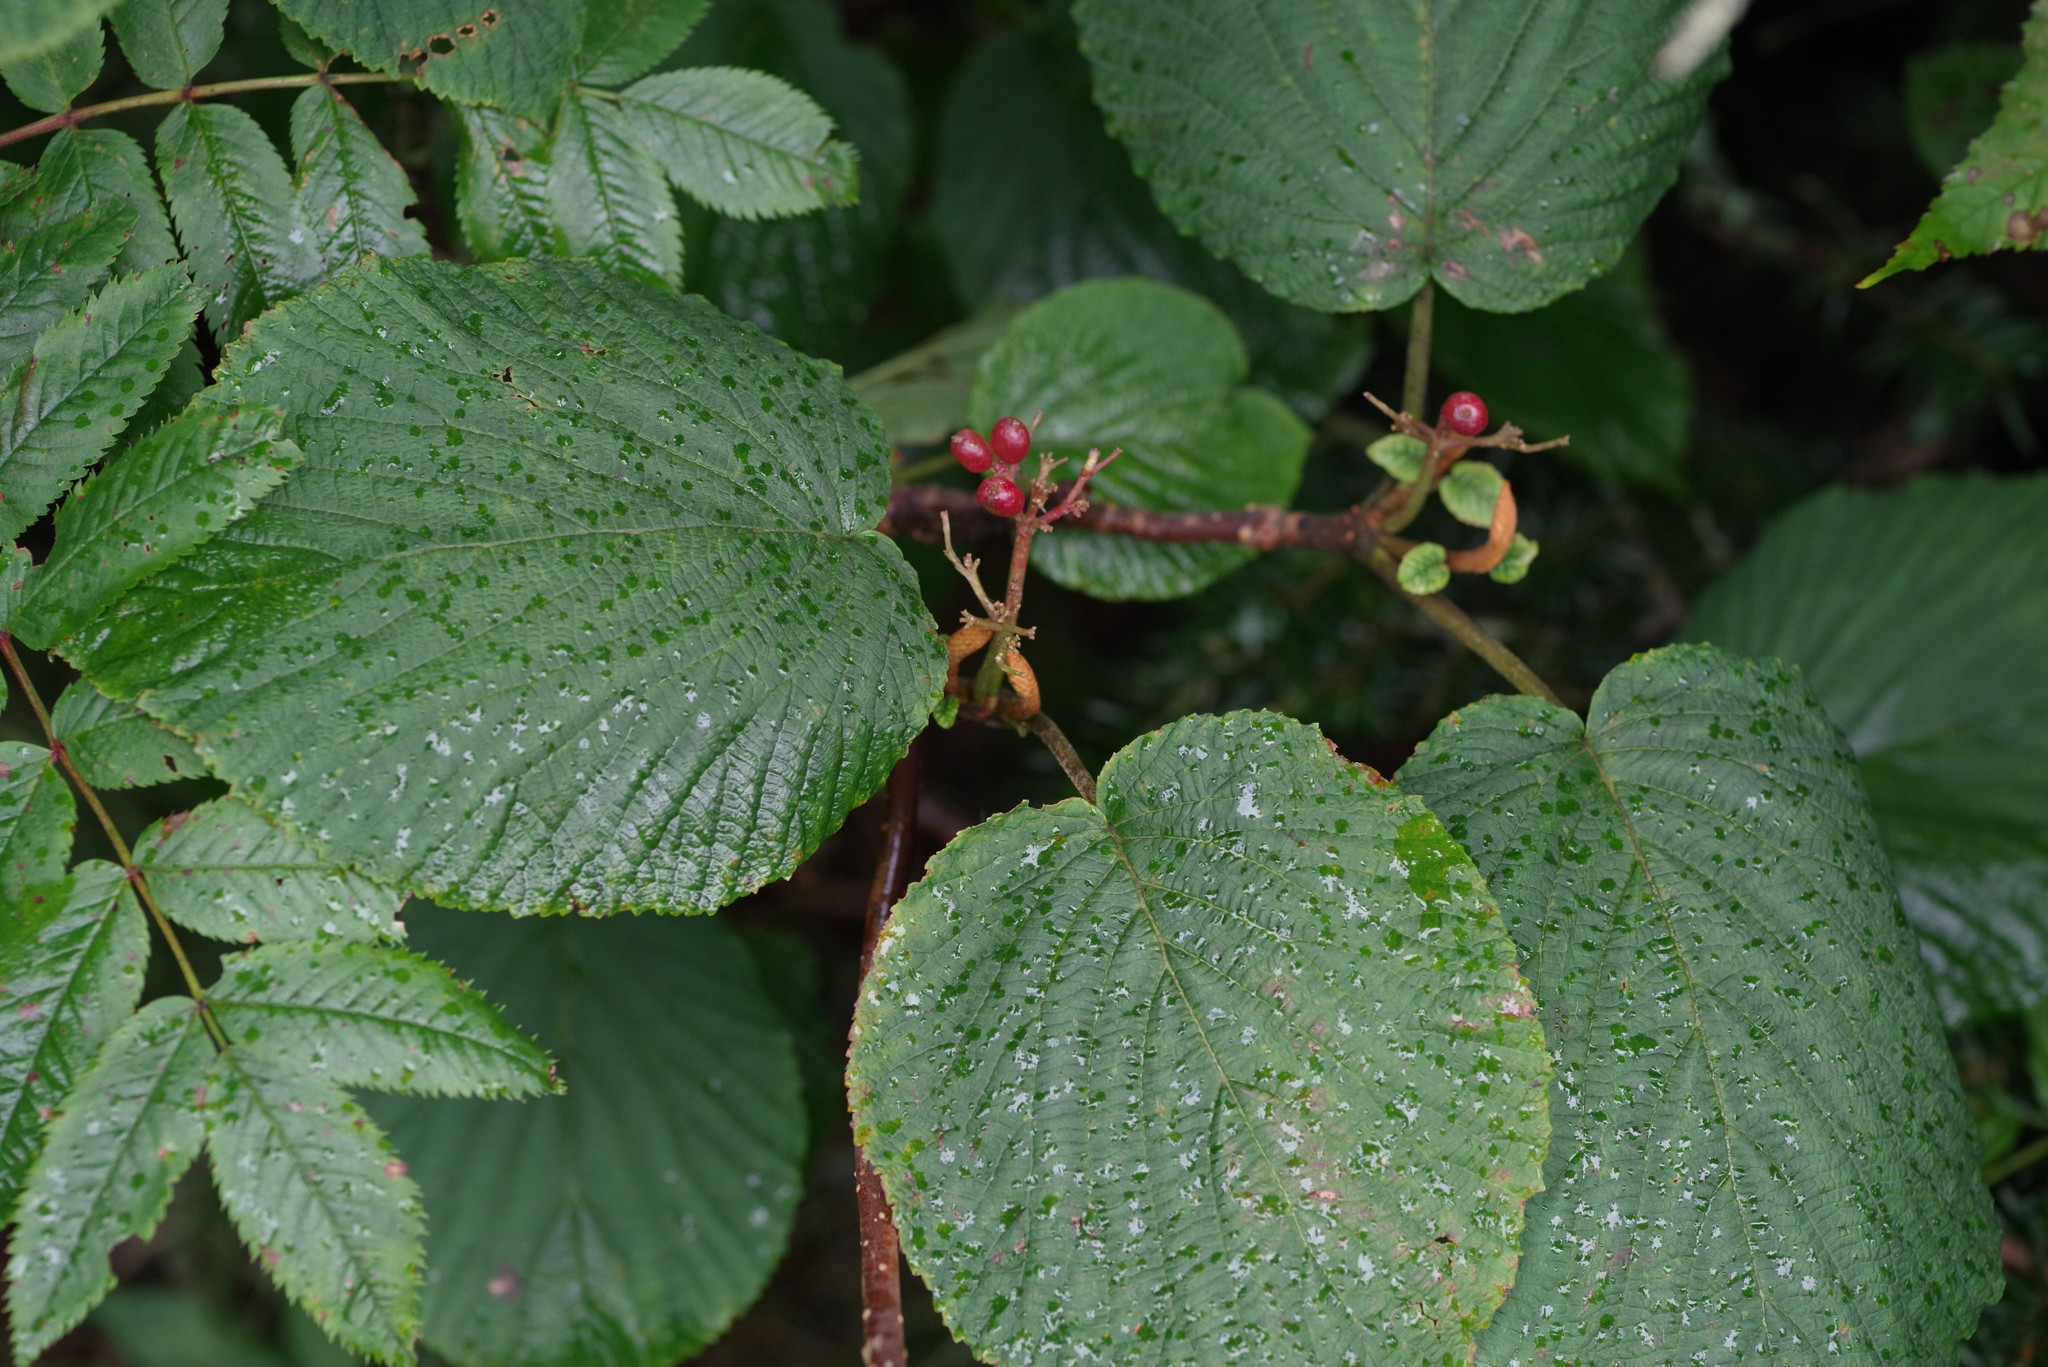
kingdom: Plantae
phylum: Tracheophyta
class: Magnoliopsida
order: Dipsacales
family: Viburnaceae
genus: Viburnum
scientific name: Viburnum lantanoides
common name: Hobblebush
